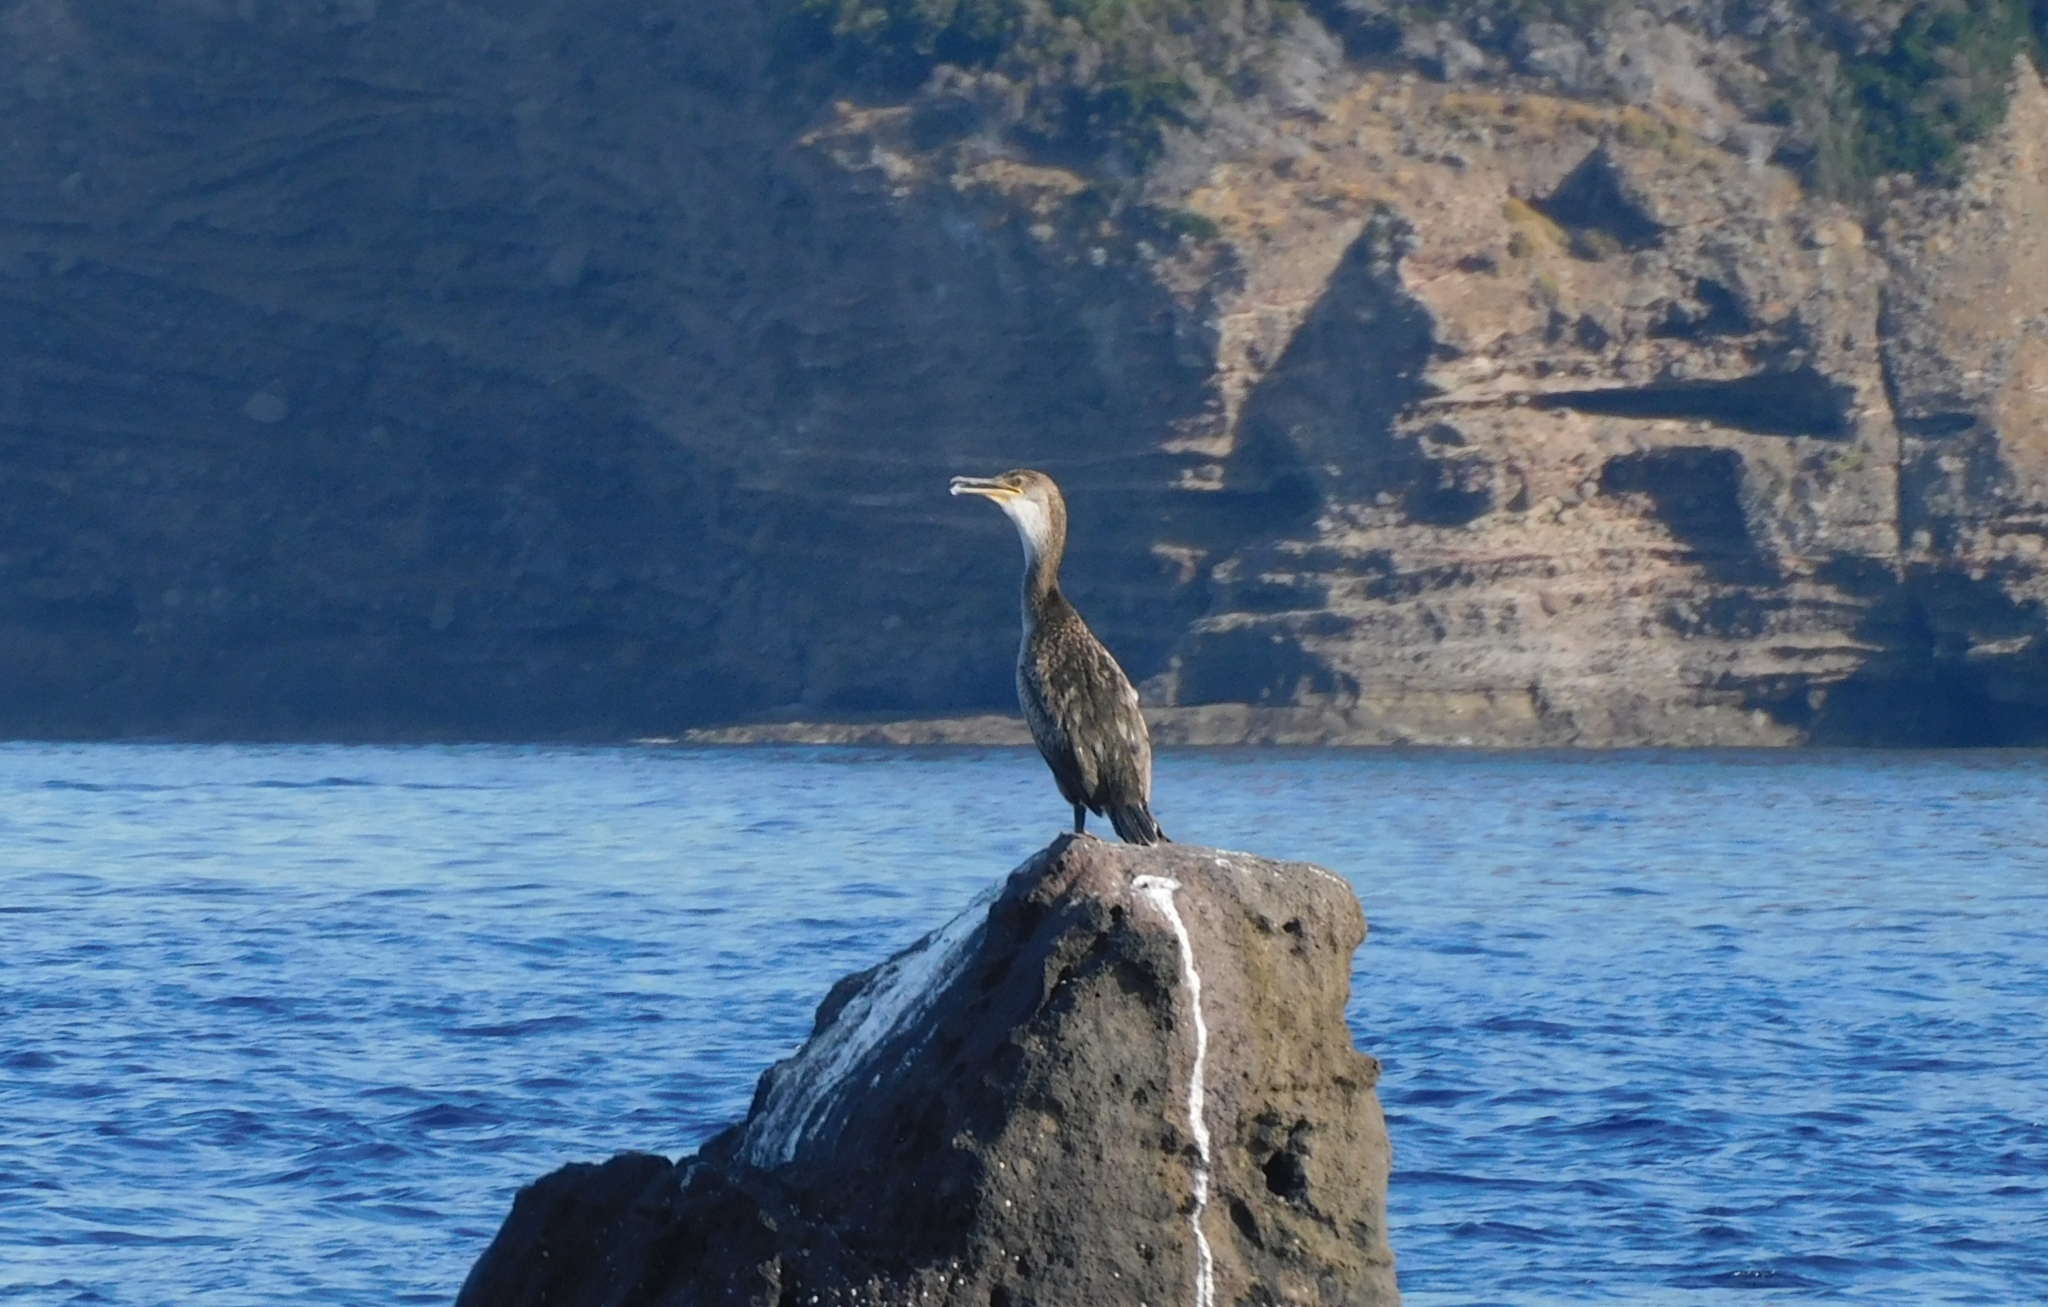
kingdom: Animalia
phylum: Chordata
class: Aves
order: Suliformes
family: Phalacrocoracidae
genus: Phalacrocorax
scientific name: Phalacrocorax aristotelis
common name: European shag
